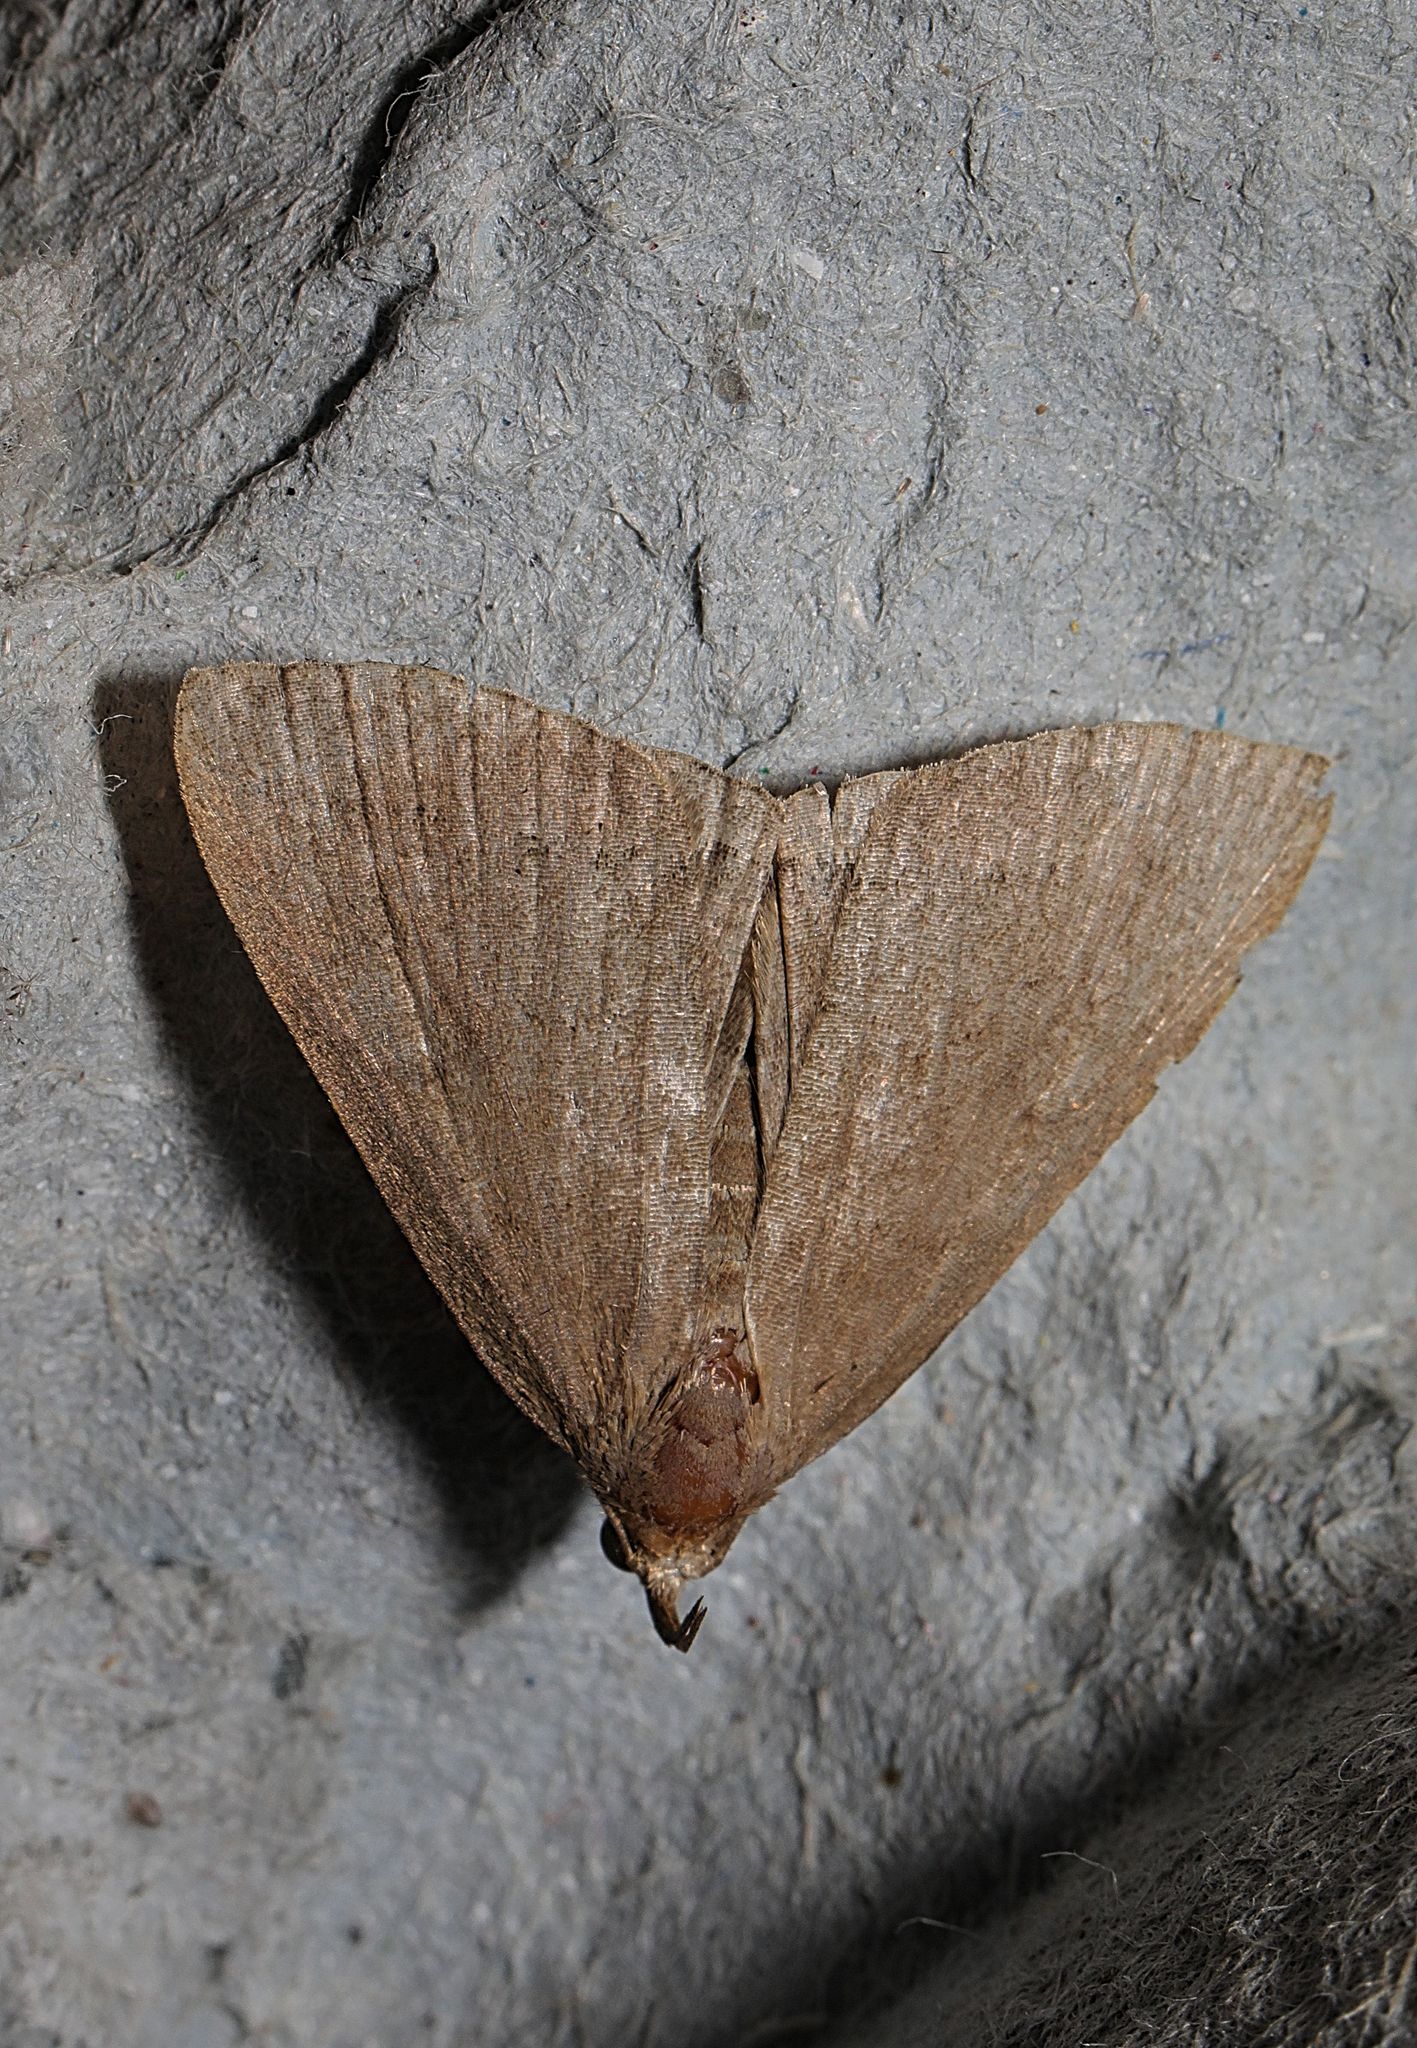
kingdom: Animalia
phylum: Arthropoda
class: Insecta
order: Lepidoptera
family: Erebidae
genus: Herminia
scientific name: Herminia tarsipennalis
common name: Fan-foot
